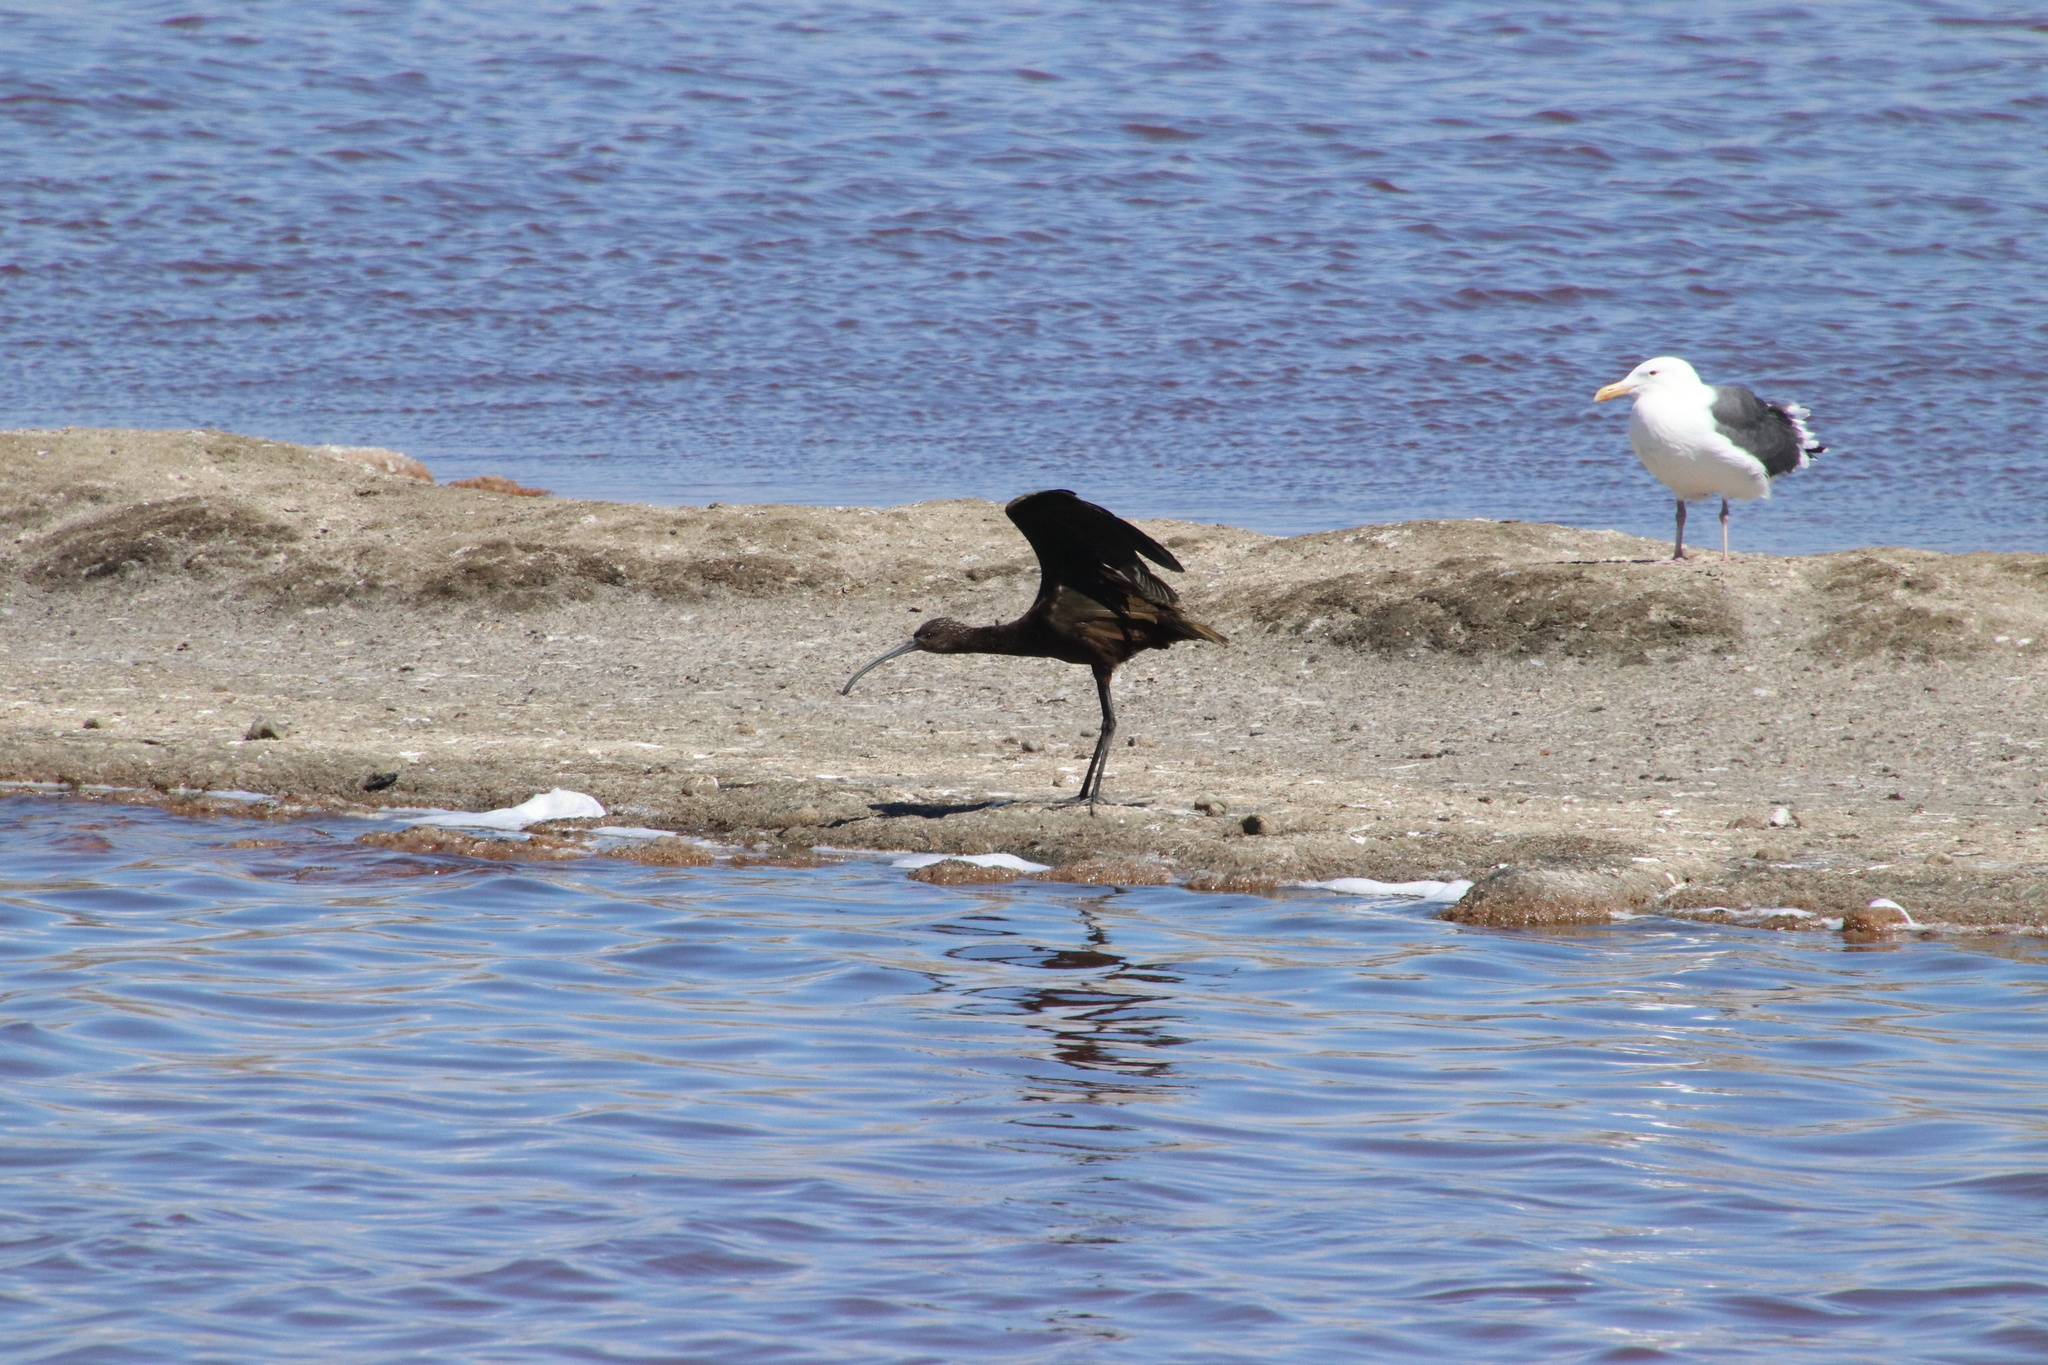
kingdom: Animalia
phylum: Chordata
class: Aves
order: Pelecaniformes
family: Threskiornithidae
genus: Plegadis
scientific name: Plegadis chihi
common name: White-faced ibis
